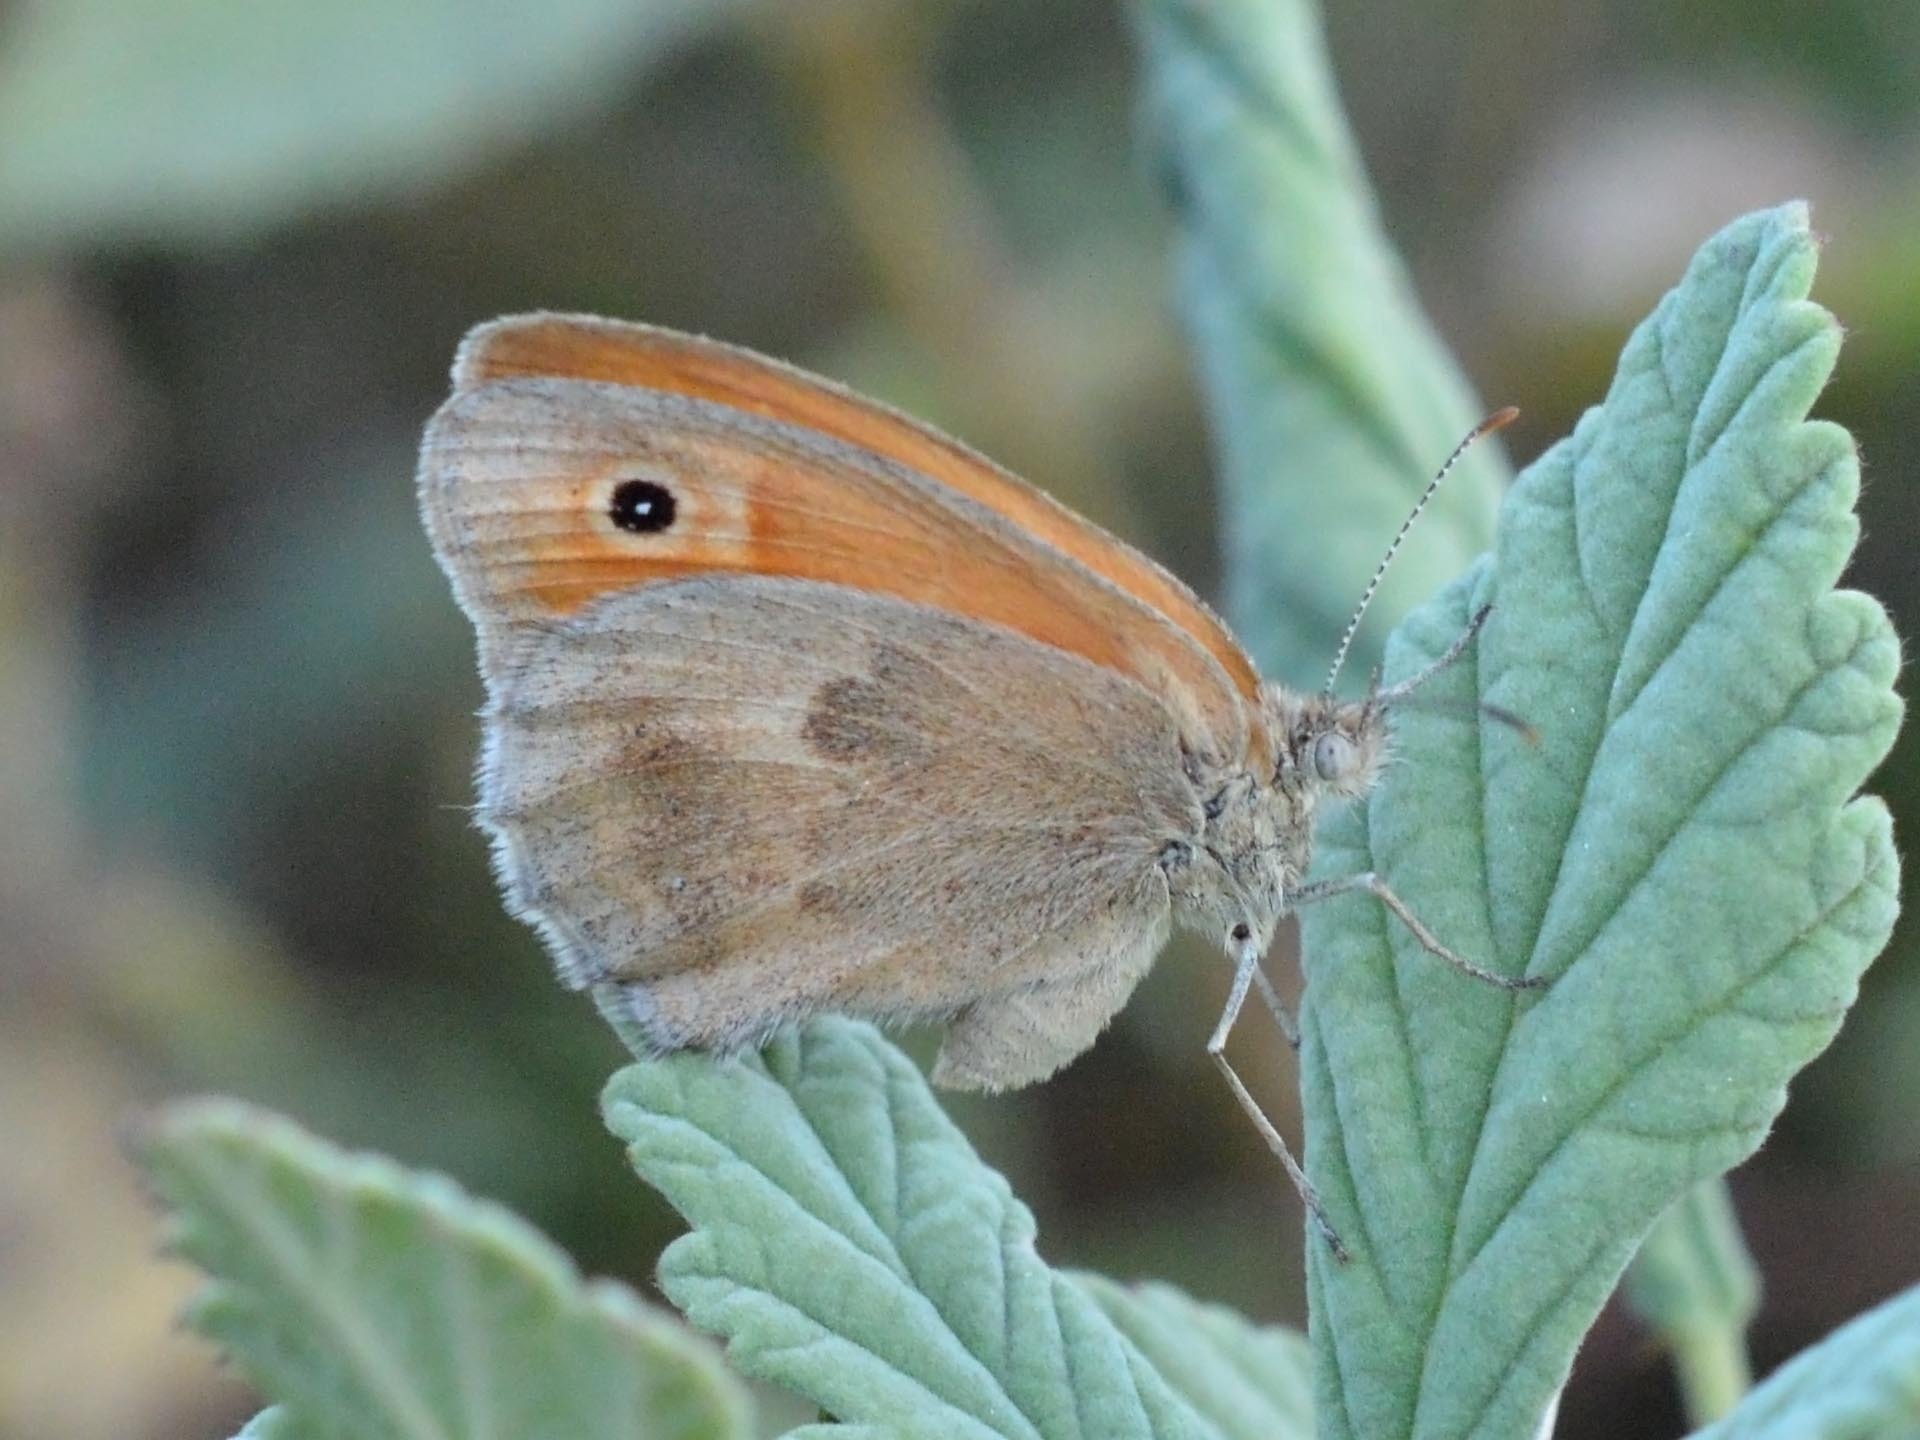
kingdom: Animalia
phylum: Arthropoda
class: Insecta
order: Lepidoptera
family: Nymphalidae
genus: Coenonympha
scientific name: Coenonympha pamphilus
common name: Small heath
